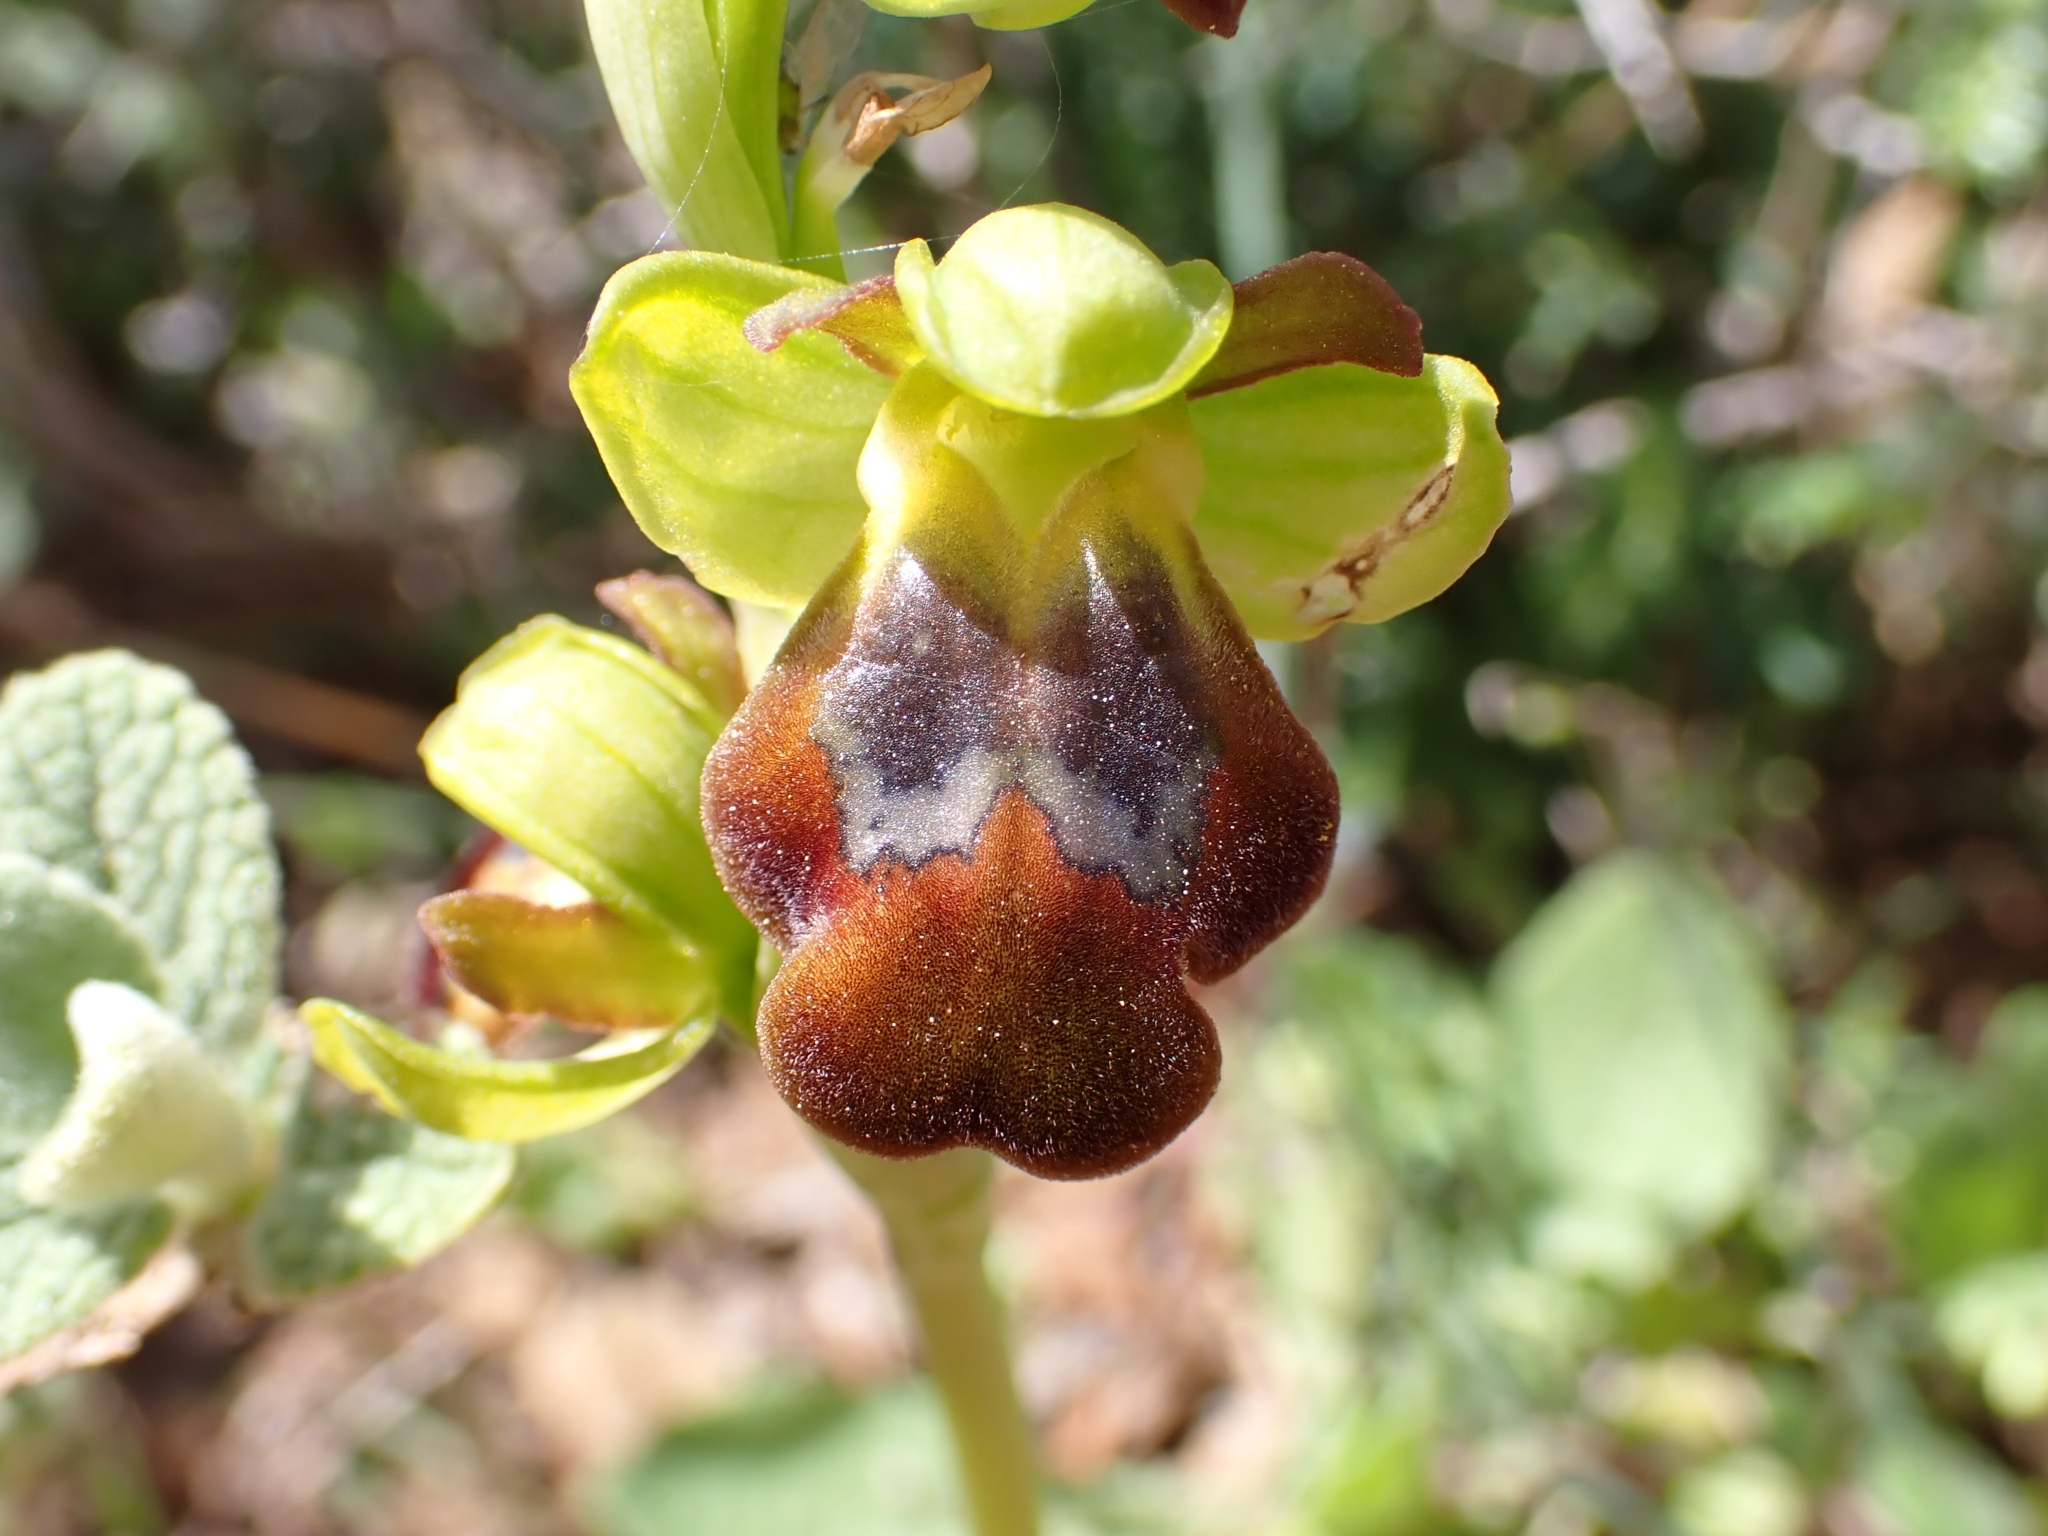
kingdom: Plantae
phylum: Tracheophyta
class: Liliopsida
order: Asparagales
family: Orchidaceae
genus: Ophrys
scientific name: Ophrys fusca
